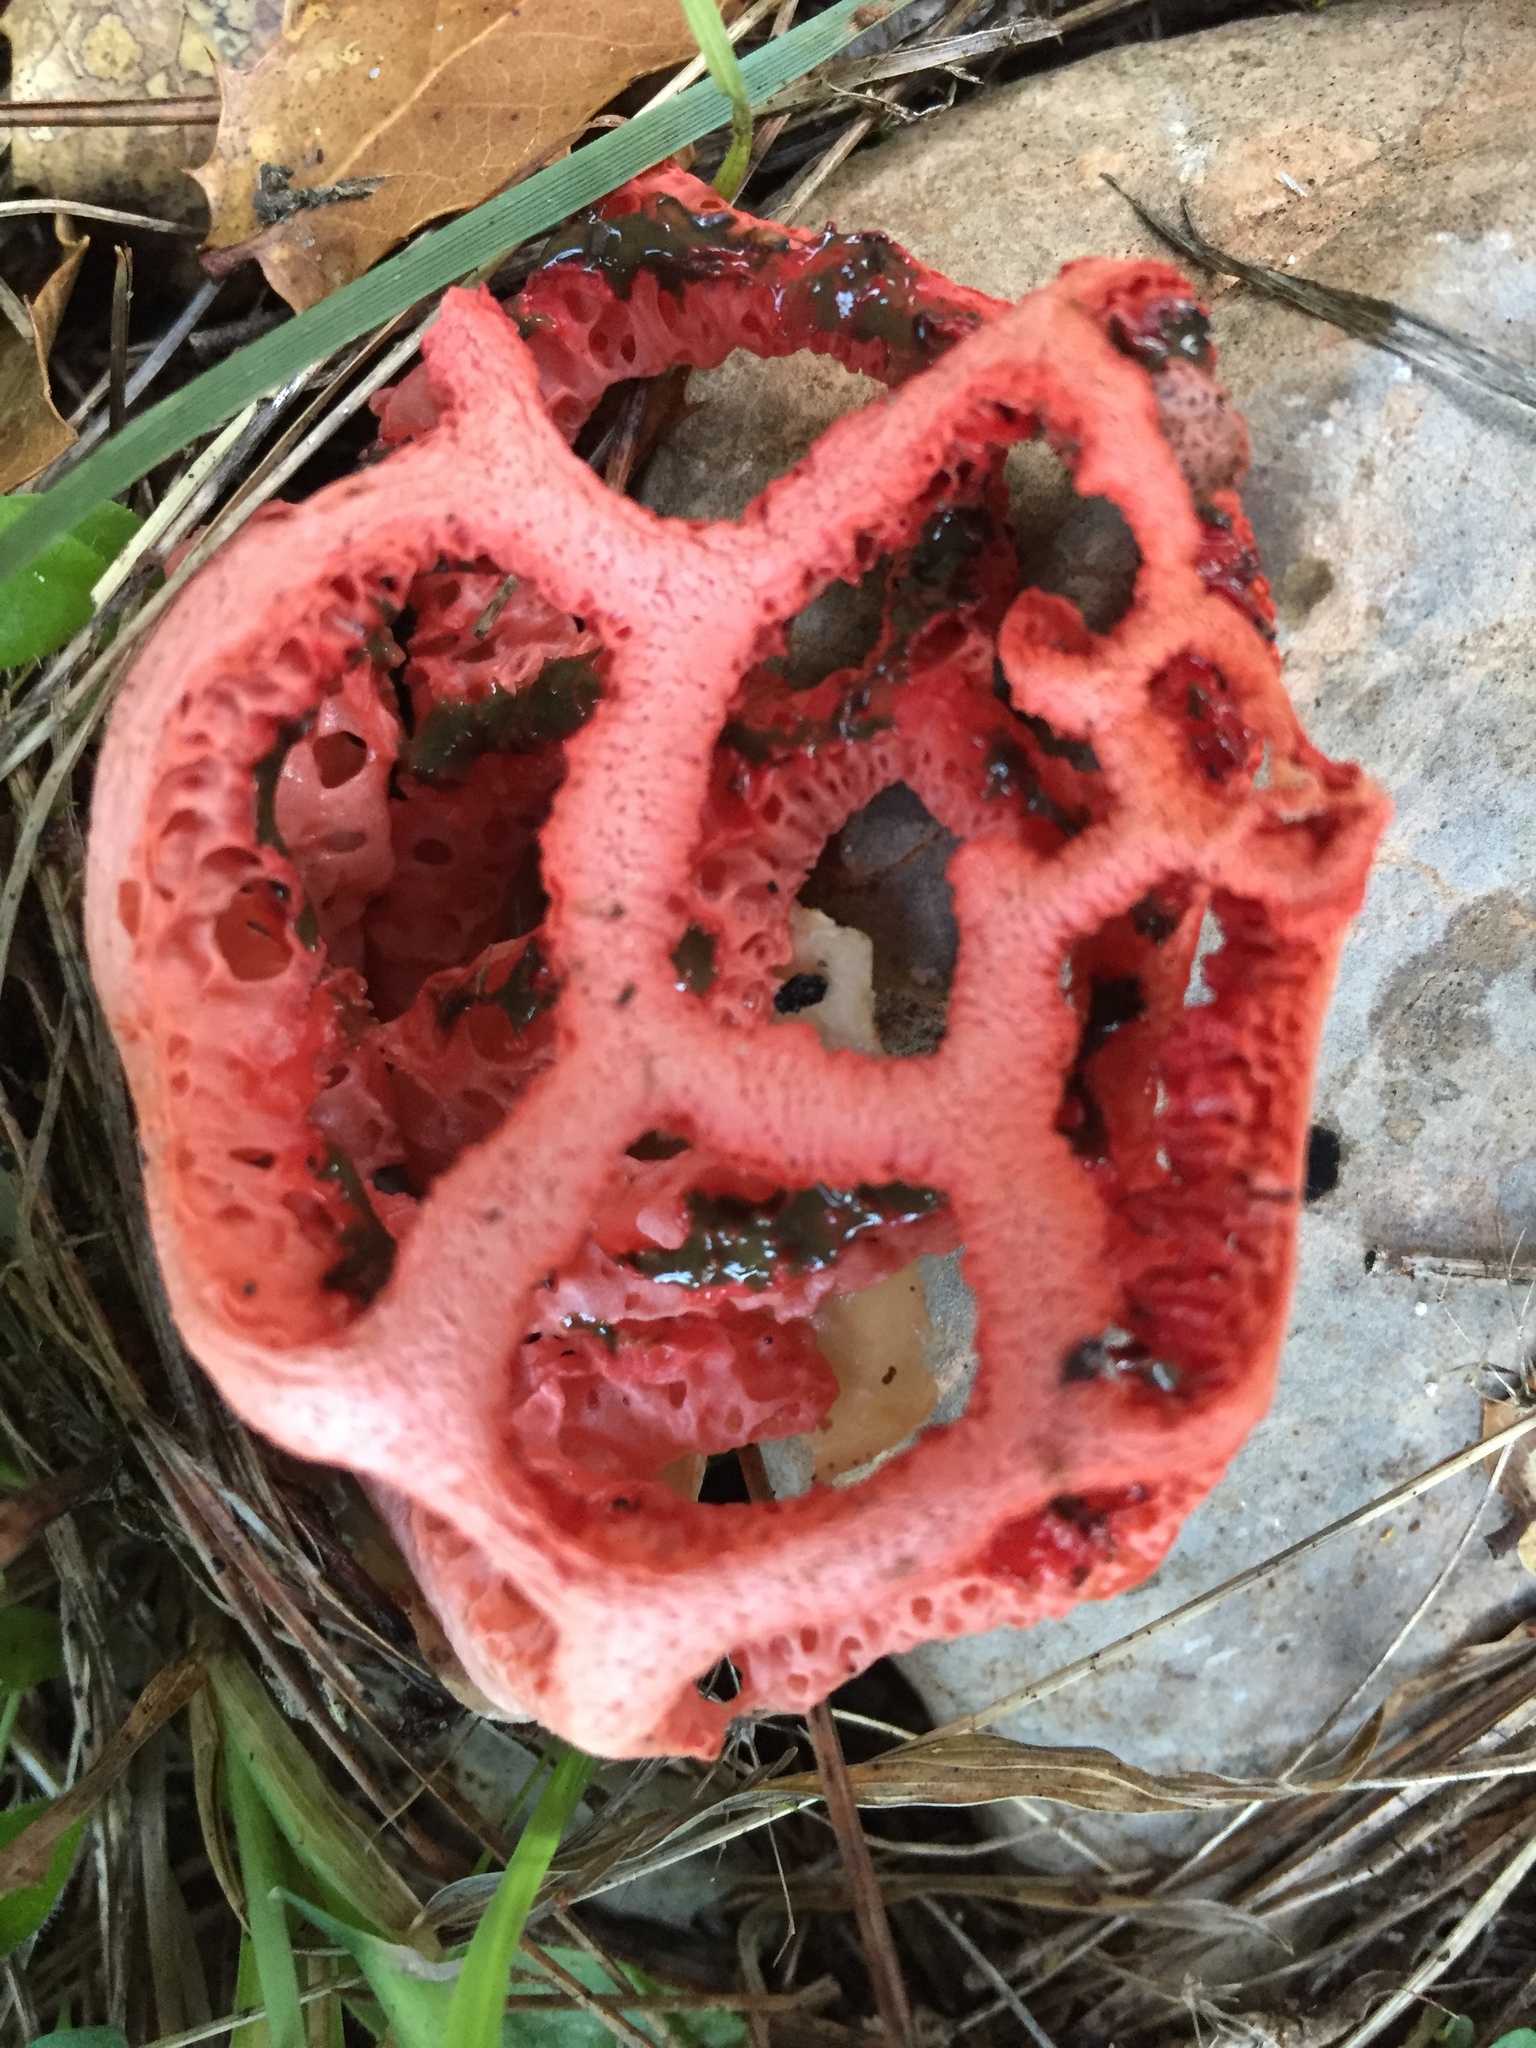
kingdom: Fungi
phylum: Basidiomycota
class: Agaricomycetes
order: Phallales
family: Phallaceae
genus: Clathrus
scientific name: Clathrus ruber
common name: Red cage
